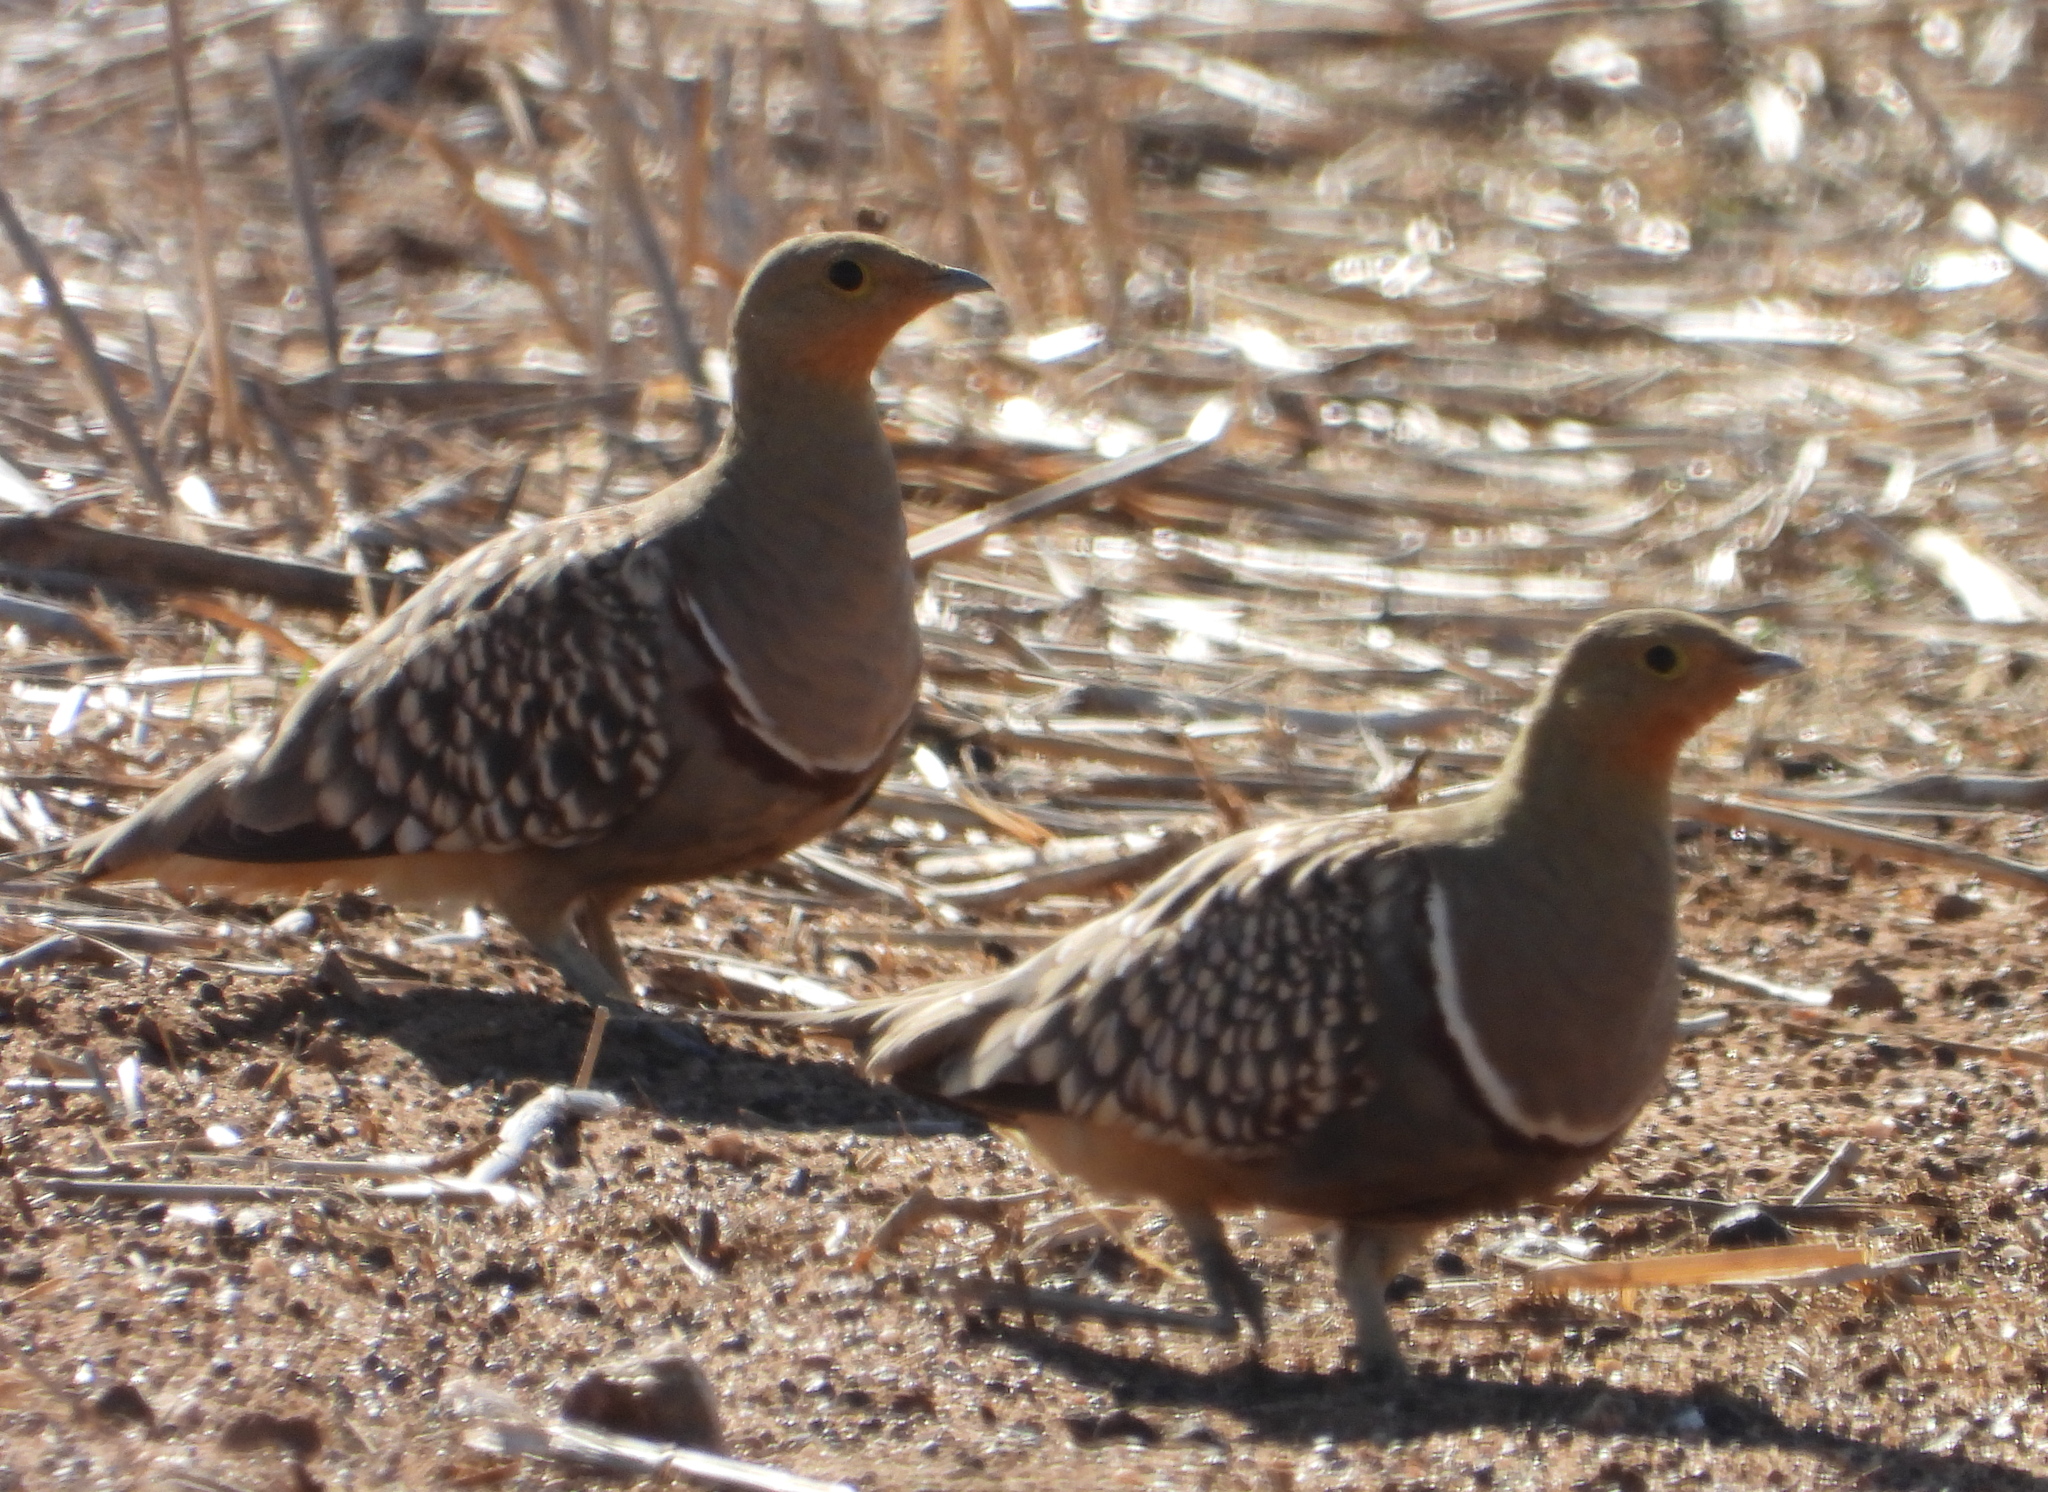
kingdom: Animalia
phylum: Chordata
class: Aves
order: Pteroclidiformes
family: Pteroclididae
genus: Pterocles
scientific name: Pterocles namaqua
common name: Namaqua sandgrouse
